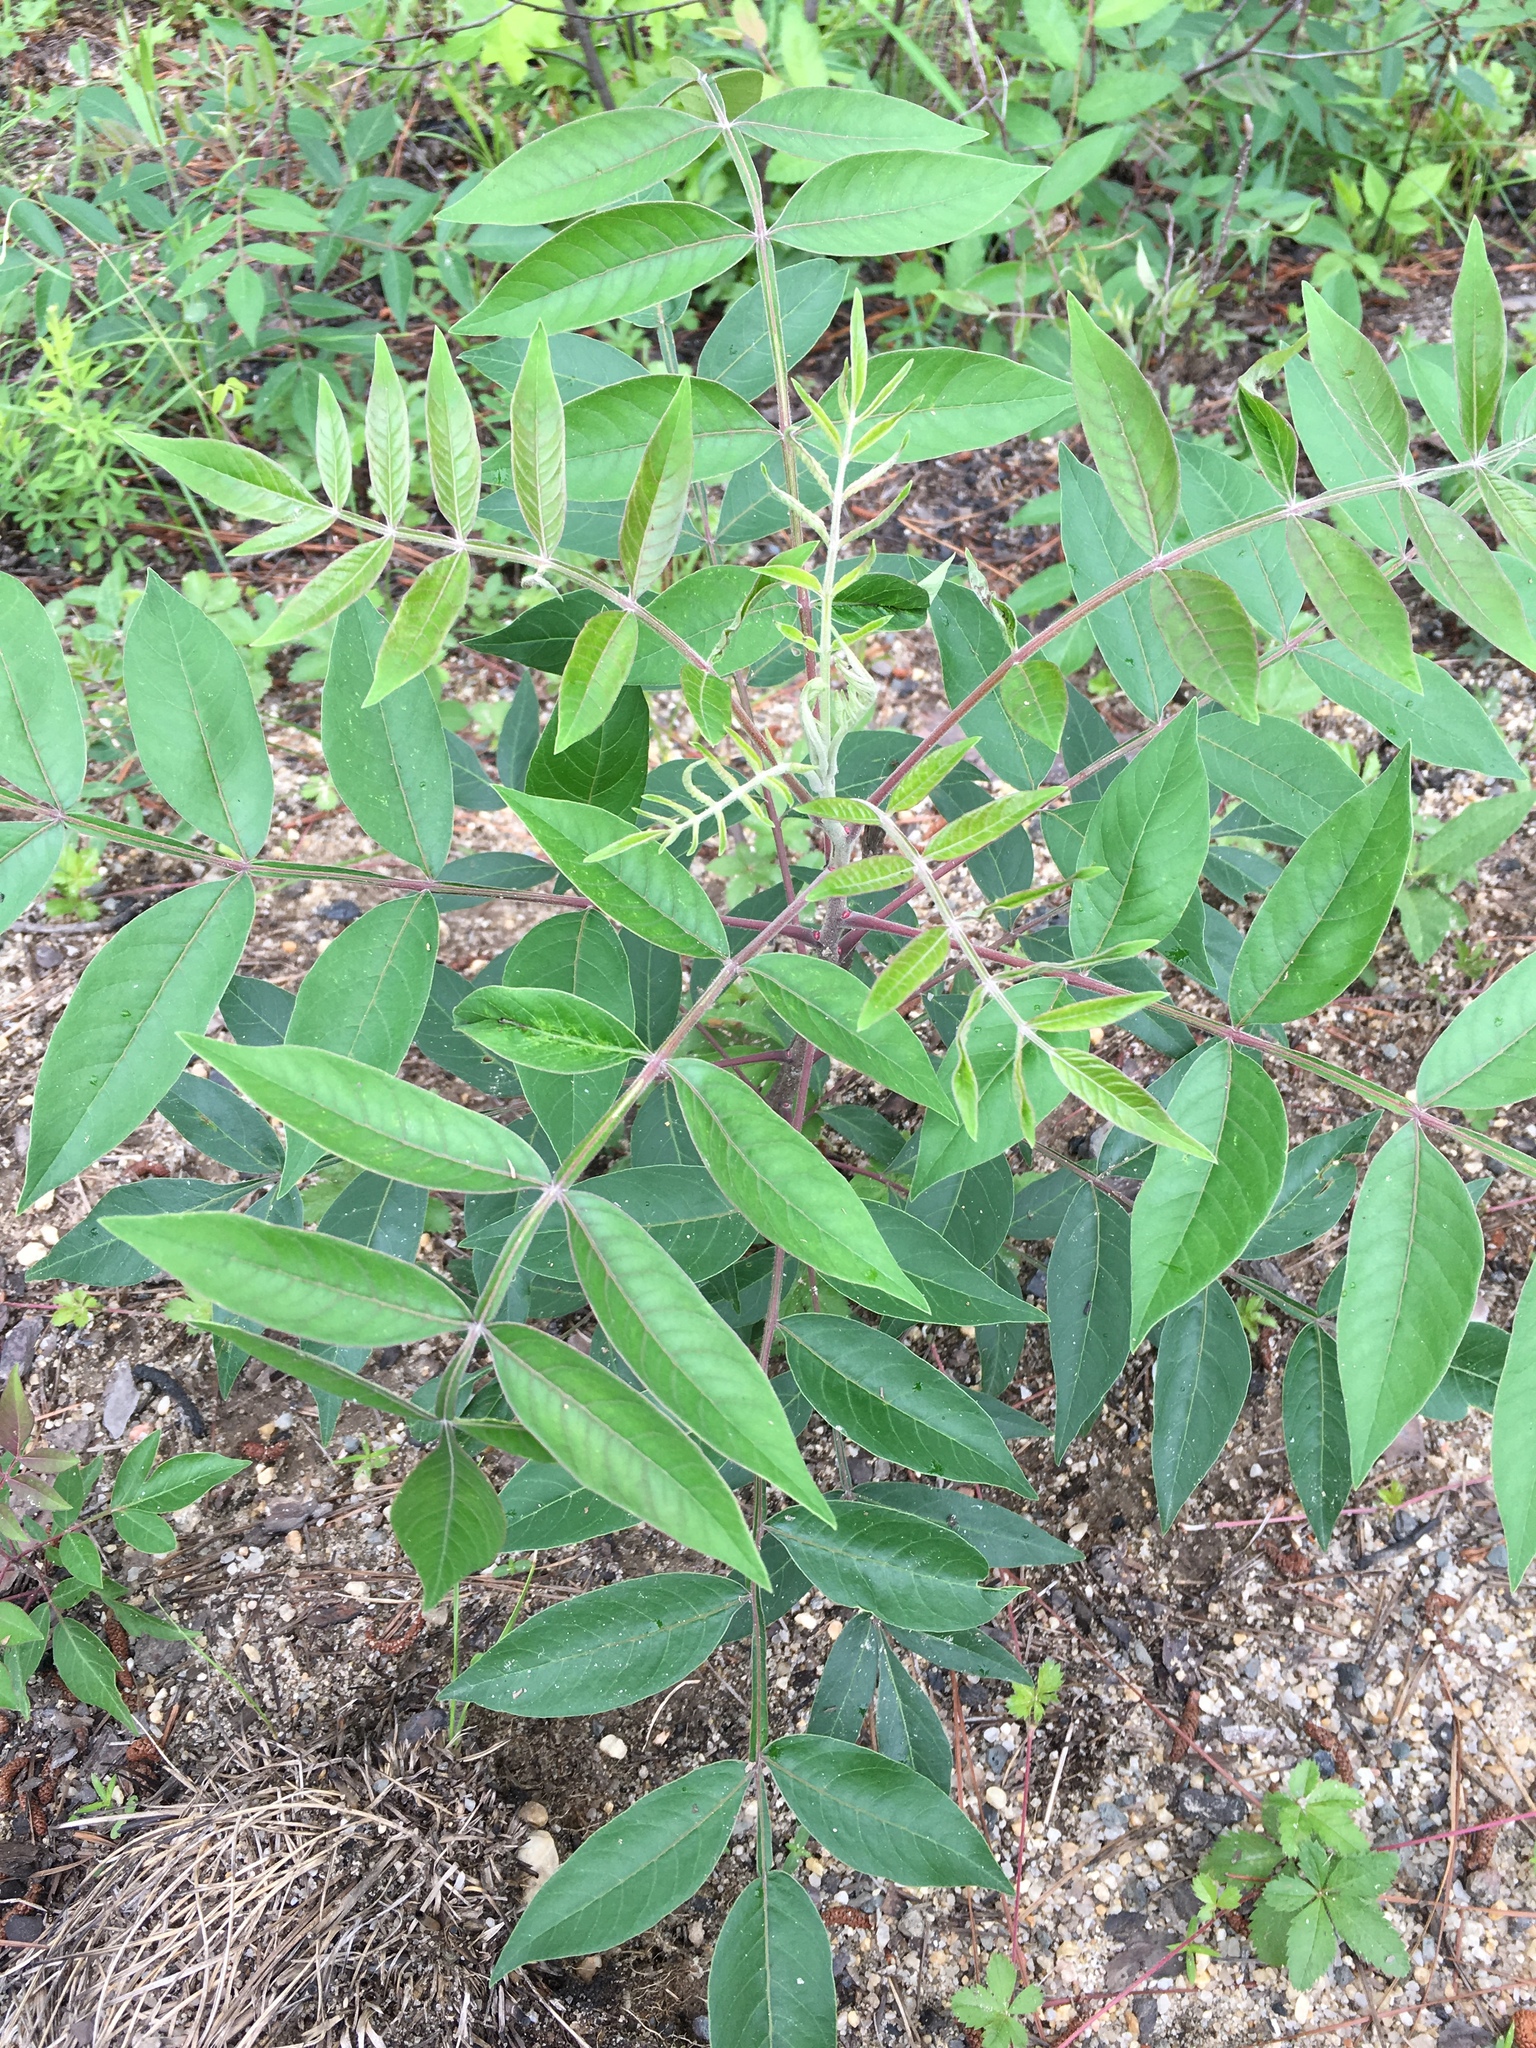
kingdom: Plantae
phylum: Tracheophyta
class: Magnoliopsida
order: Sapindales
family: Anacardiaceae
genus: Rhus
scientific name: Rhus copallina
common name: Shining sumac
